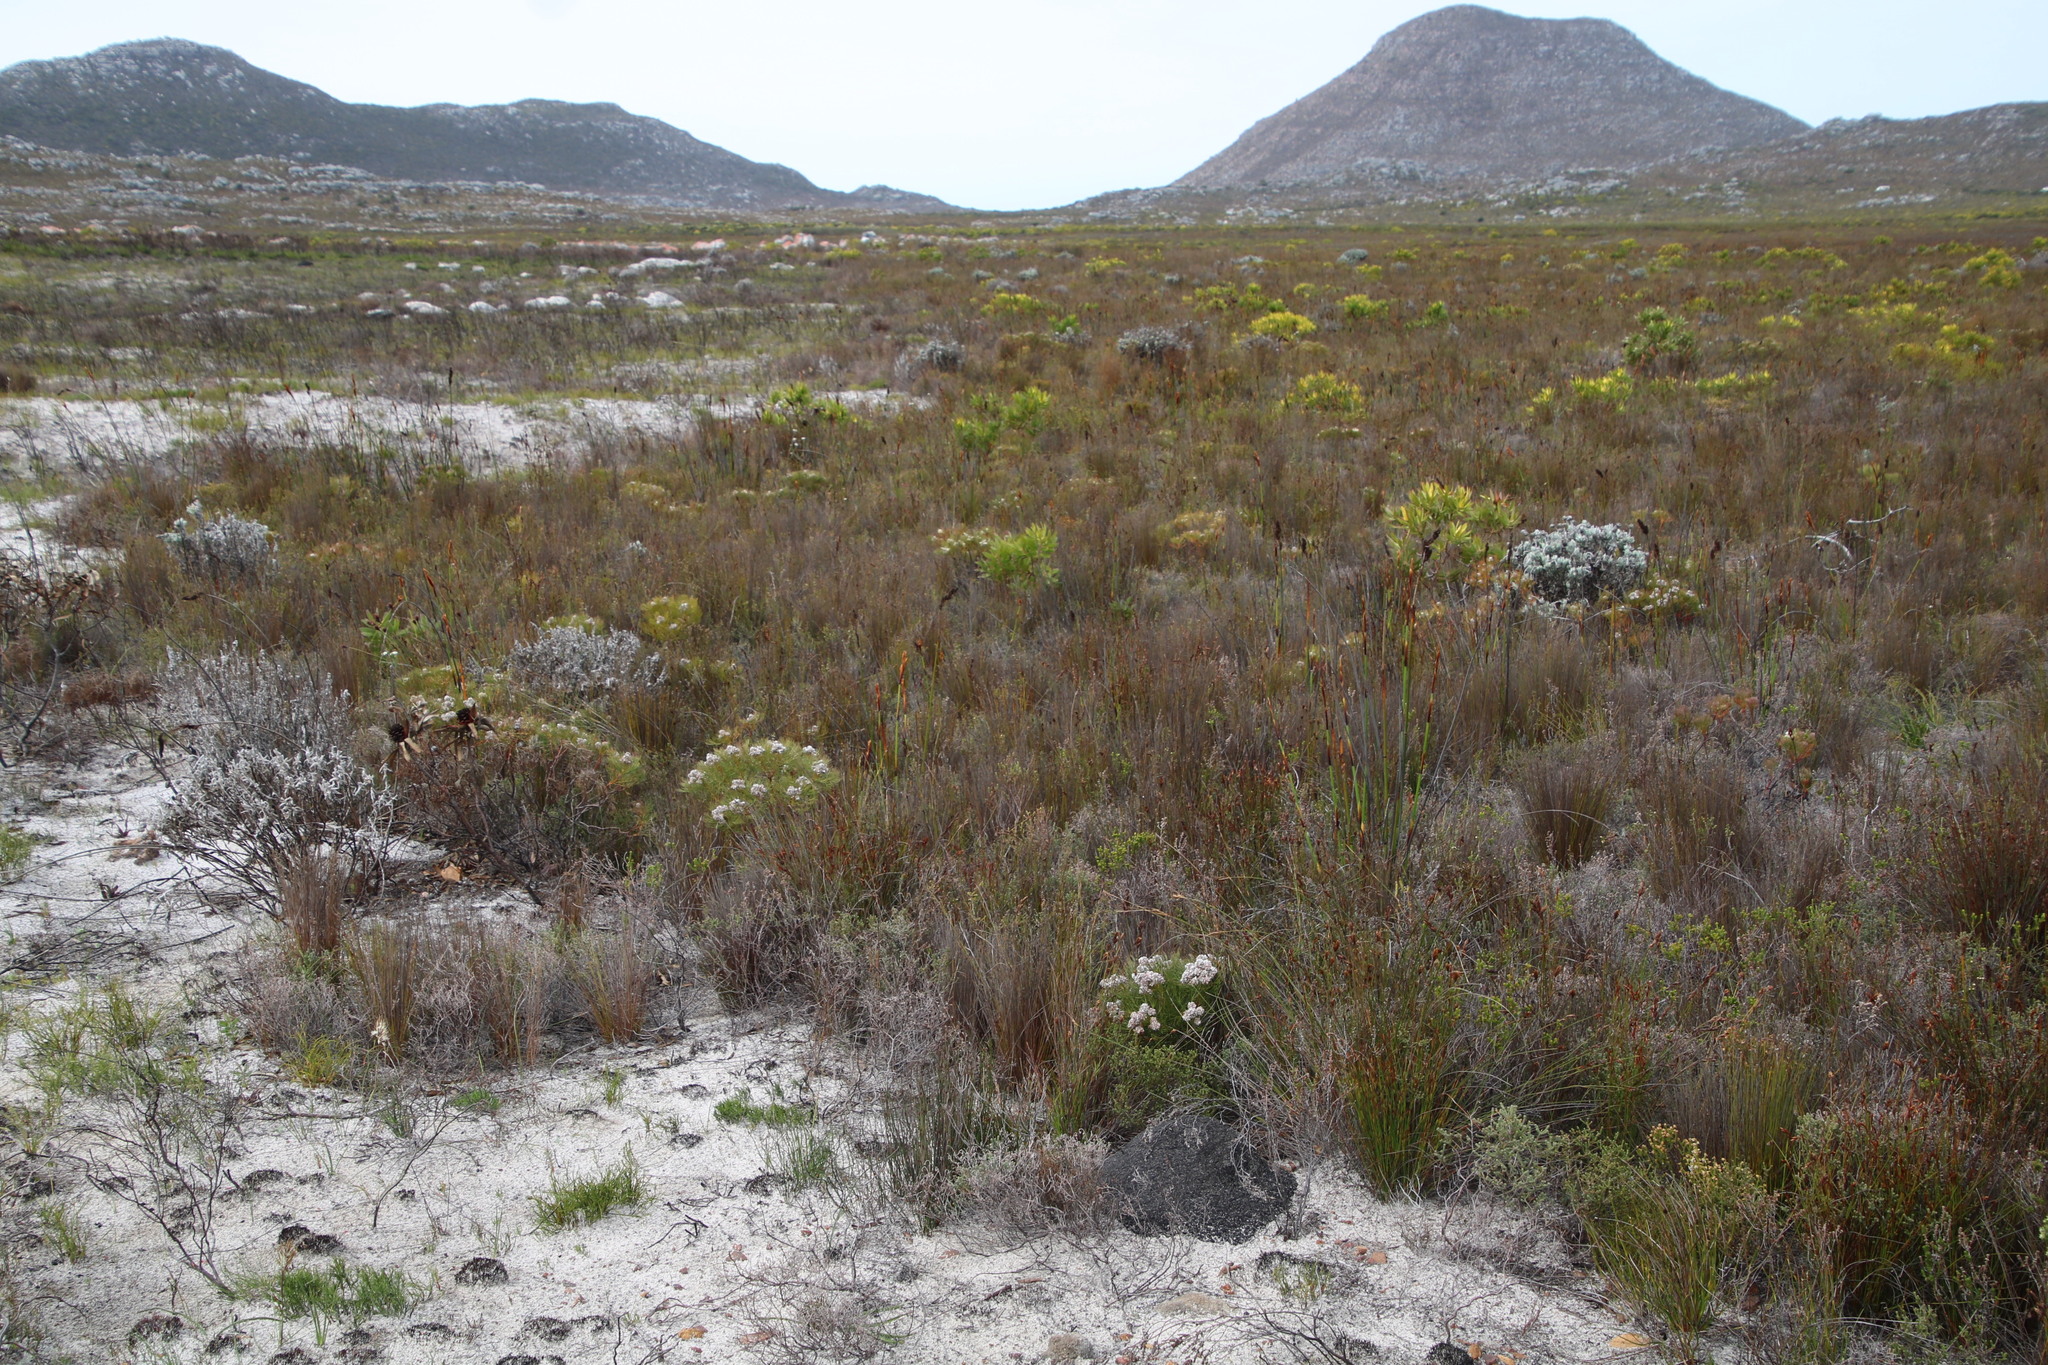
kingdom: Plantae
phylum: Tracheophyta
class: Magnoliopsida
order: Proteales
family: Proteaceae
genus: Serruria
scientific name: Serruria glomerata
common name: Cluster spiderhead
